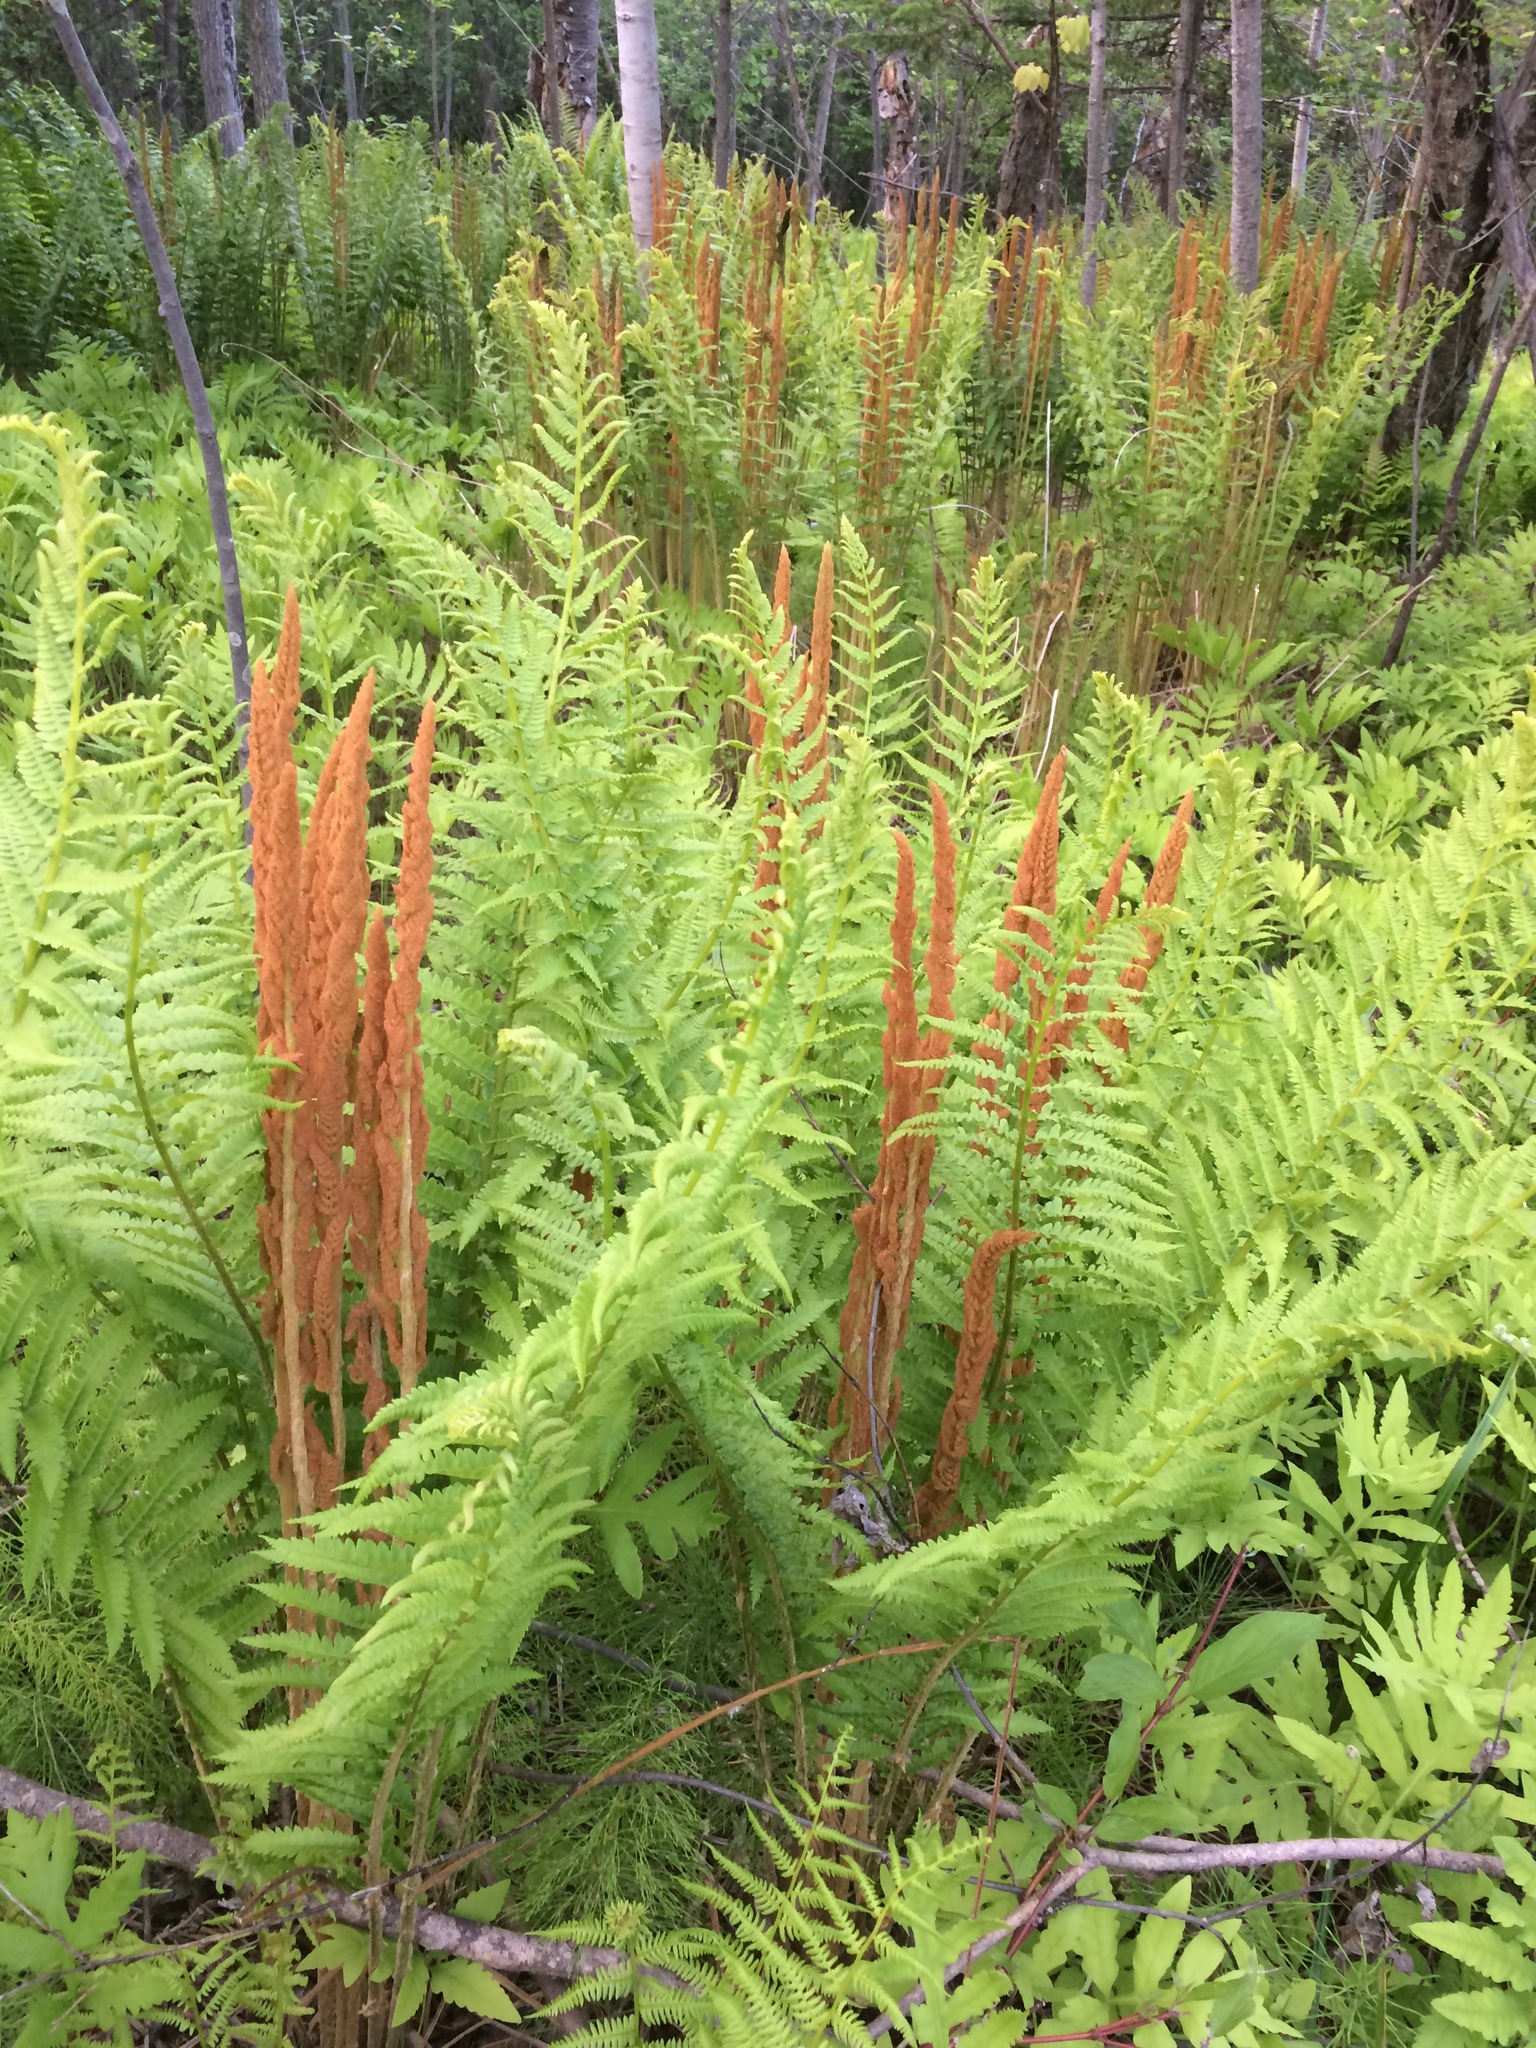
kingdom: Plantae
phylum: Tracheophyta
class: Polypodiopsida
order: Osmundales
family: Osmundaceae
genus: Osmundastrum
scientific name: Osmundastrum cinnamomeum
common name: Cinnamon fern
